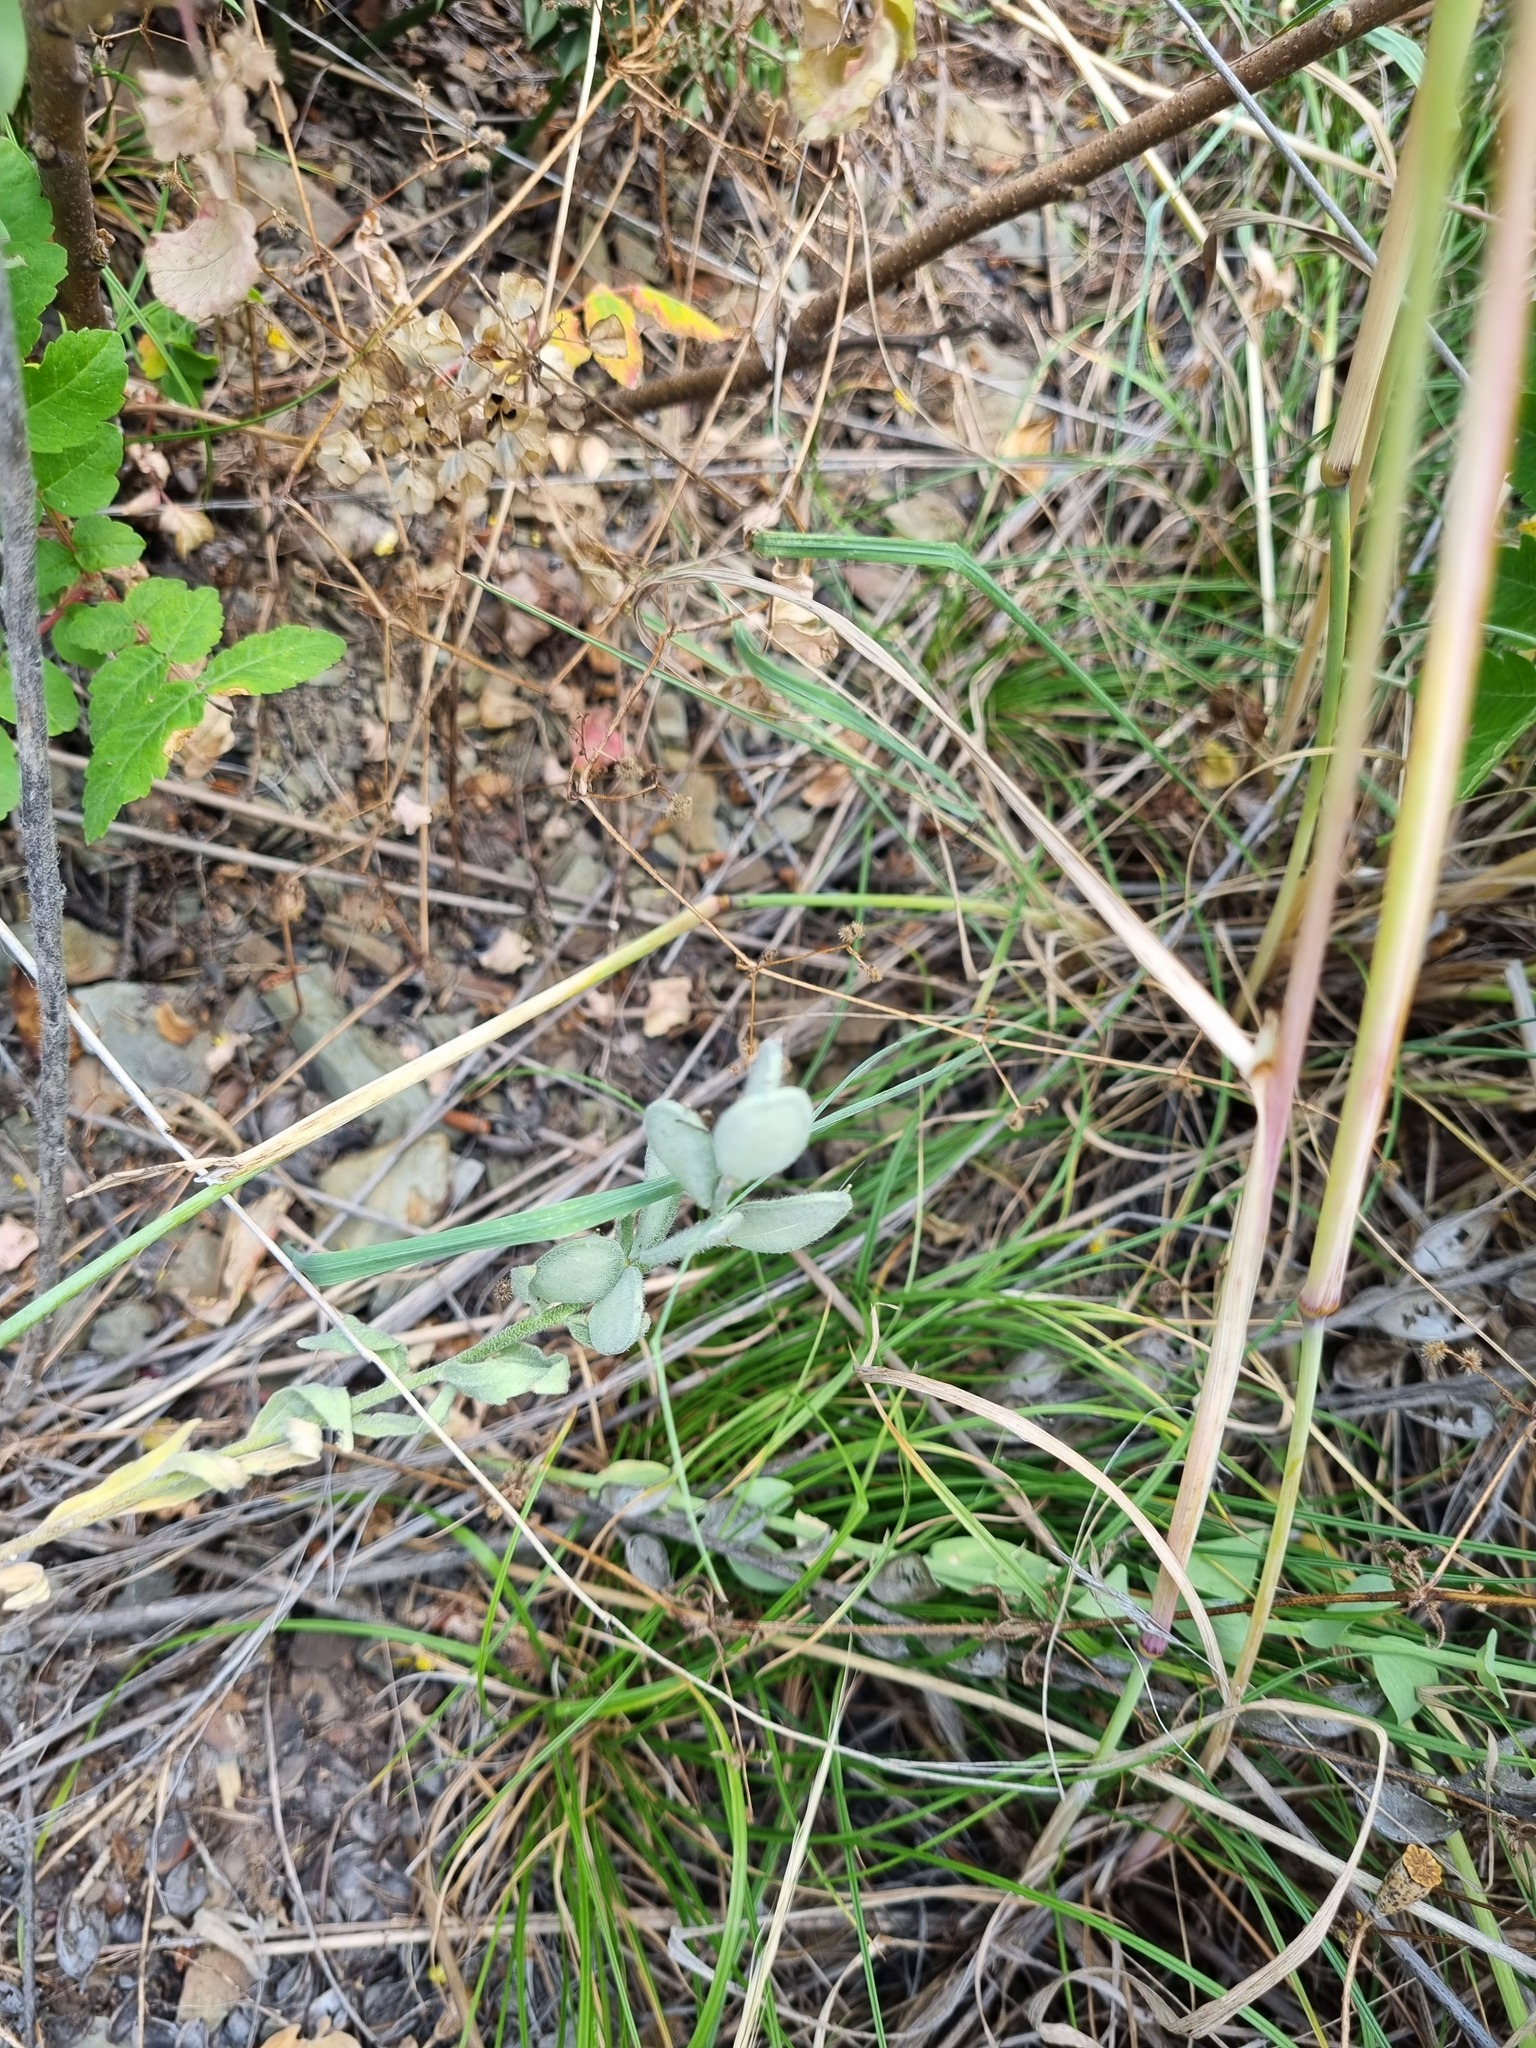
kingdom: Plantae
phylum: Tracheophyta
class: Magnoliopsida
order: Brassicales
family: Brassicaceae
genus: Fibigia
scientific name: Fibigia clypeata
